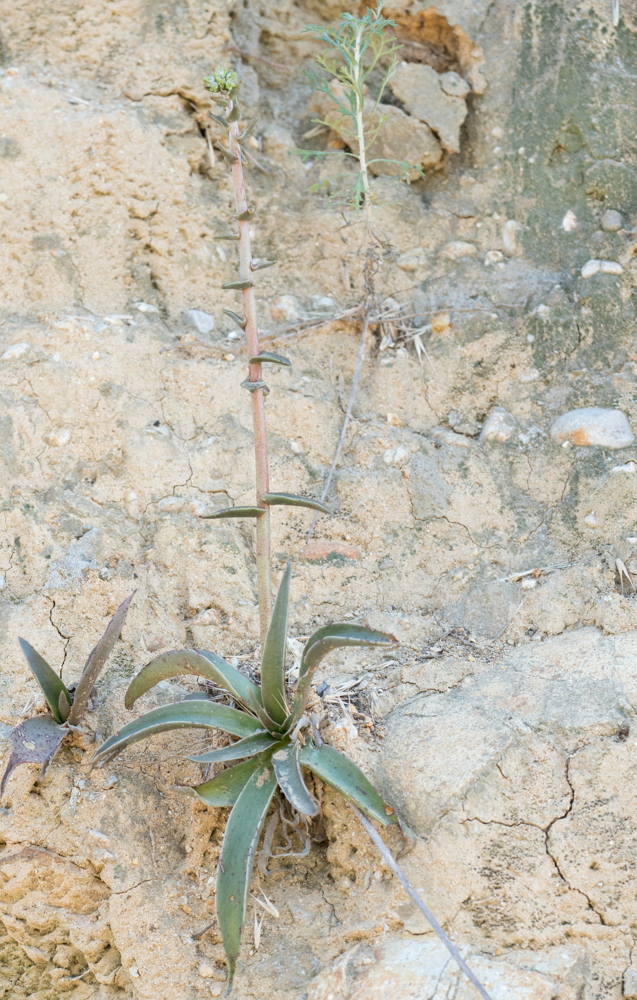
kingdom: Plantae
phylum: Tracheophyta
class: Magnoliopsida
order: Saxifragales
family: Crassulaceae
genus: Dudleya
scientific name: Dudleya lanceolata
